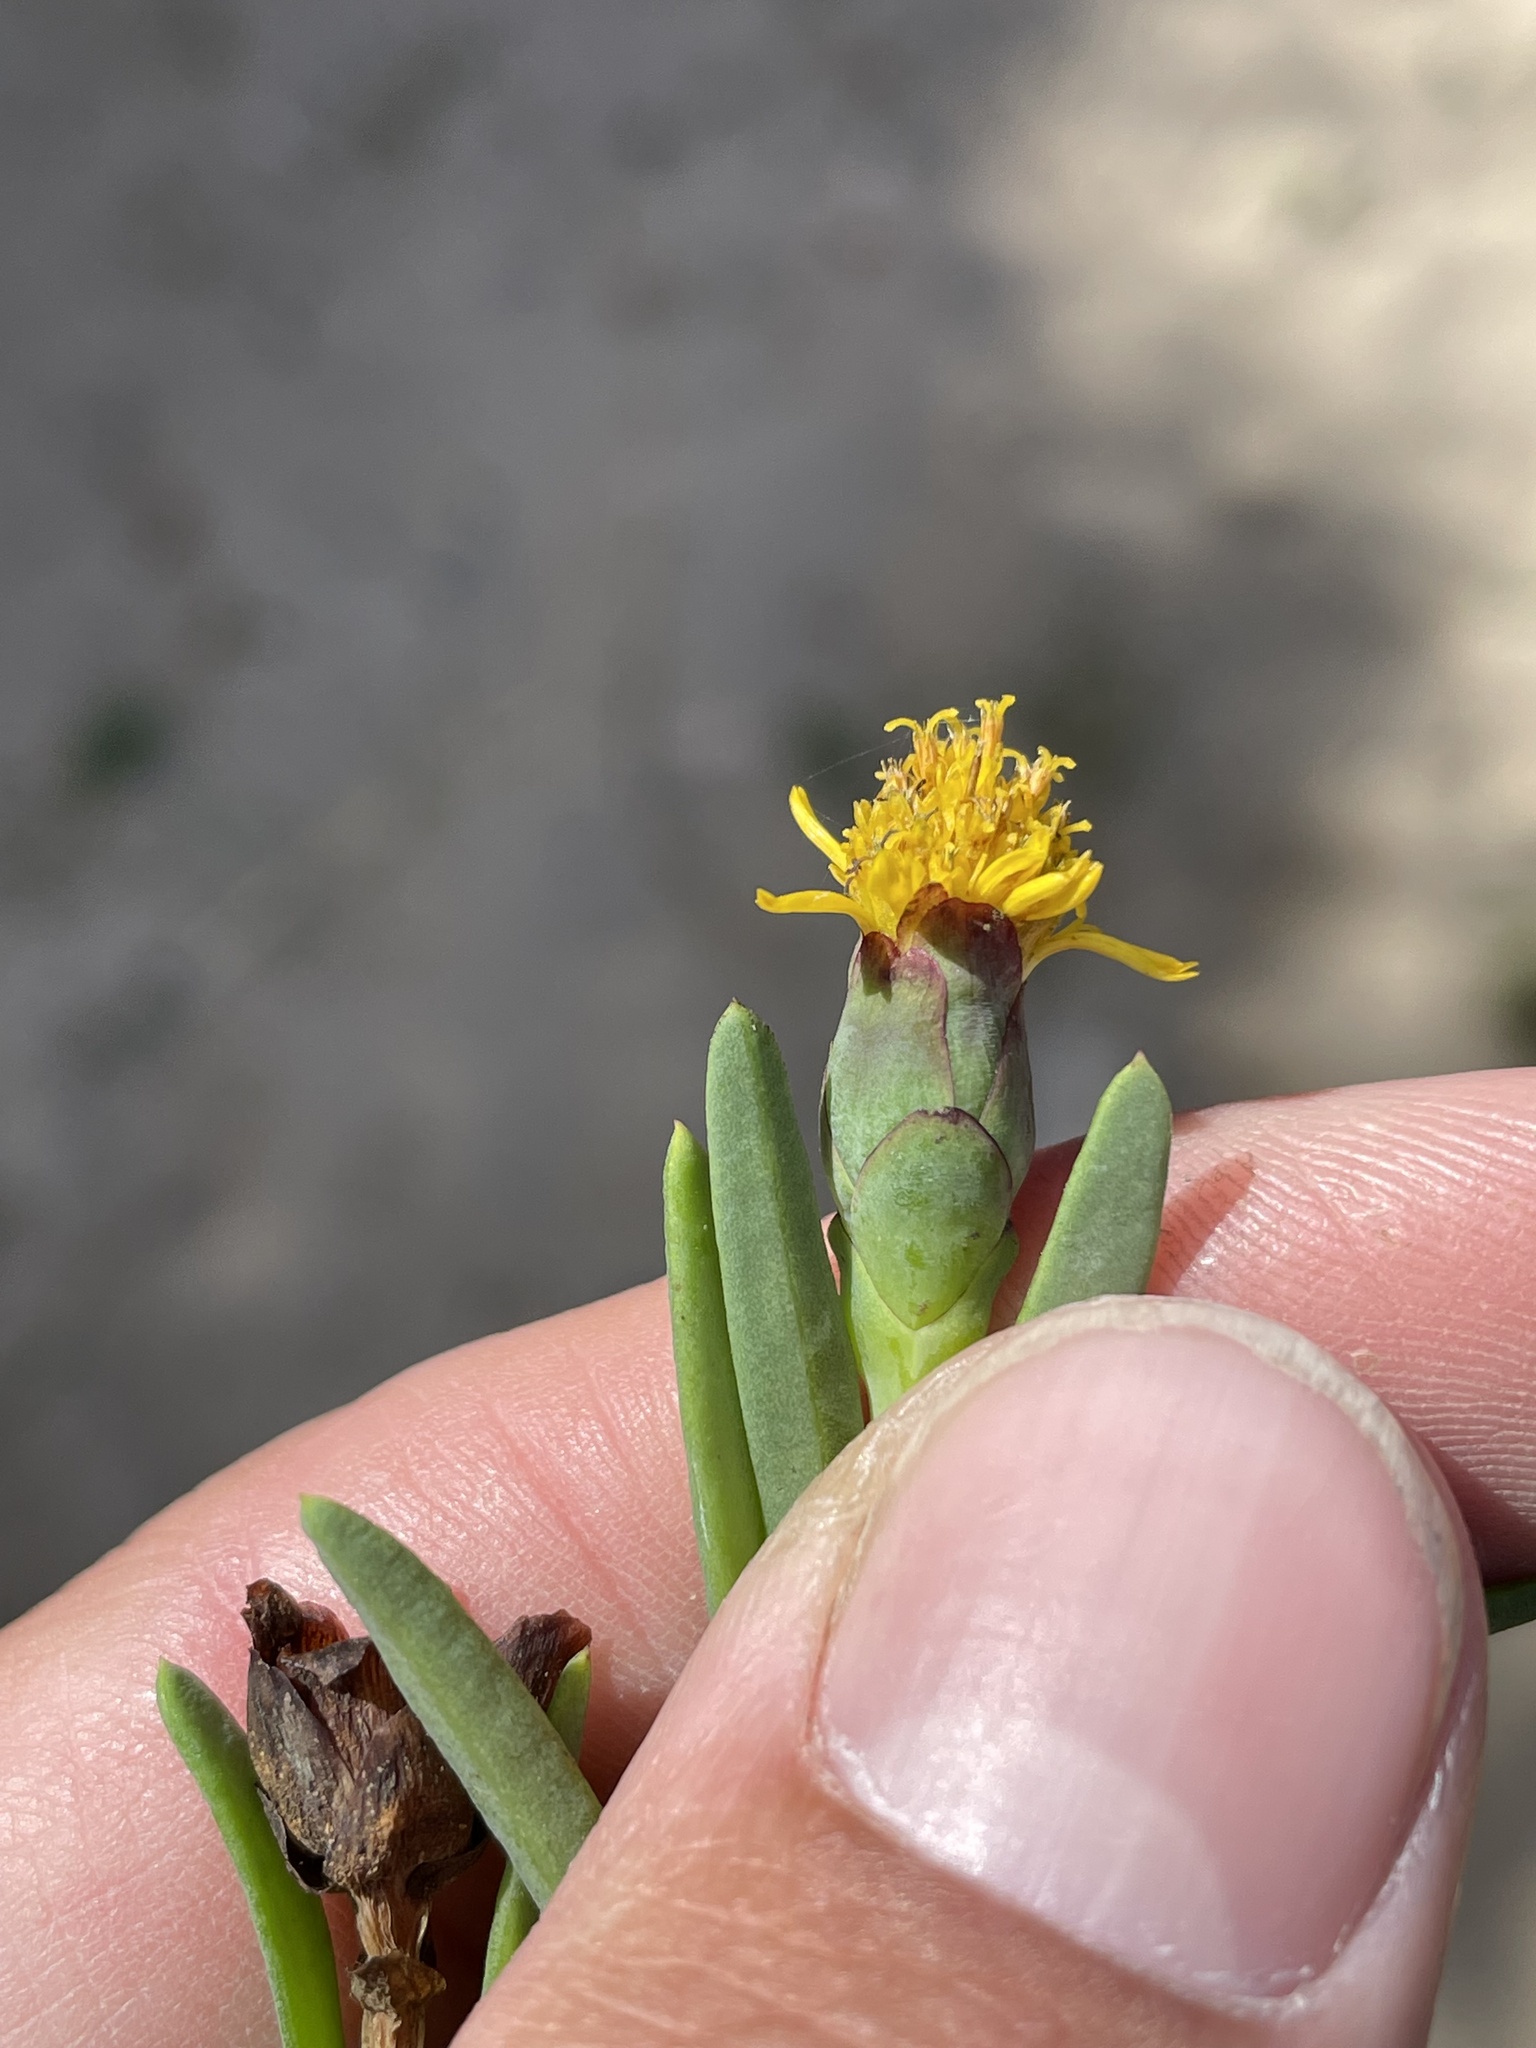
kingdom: Plantae
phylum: Tracheophyta
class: Magnoliopsida
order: Asterales
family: Asteraceae
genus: Jaumea
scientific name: Jaumea carnosa
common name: Fleshy jaumea
